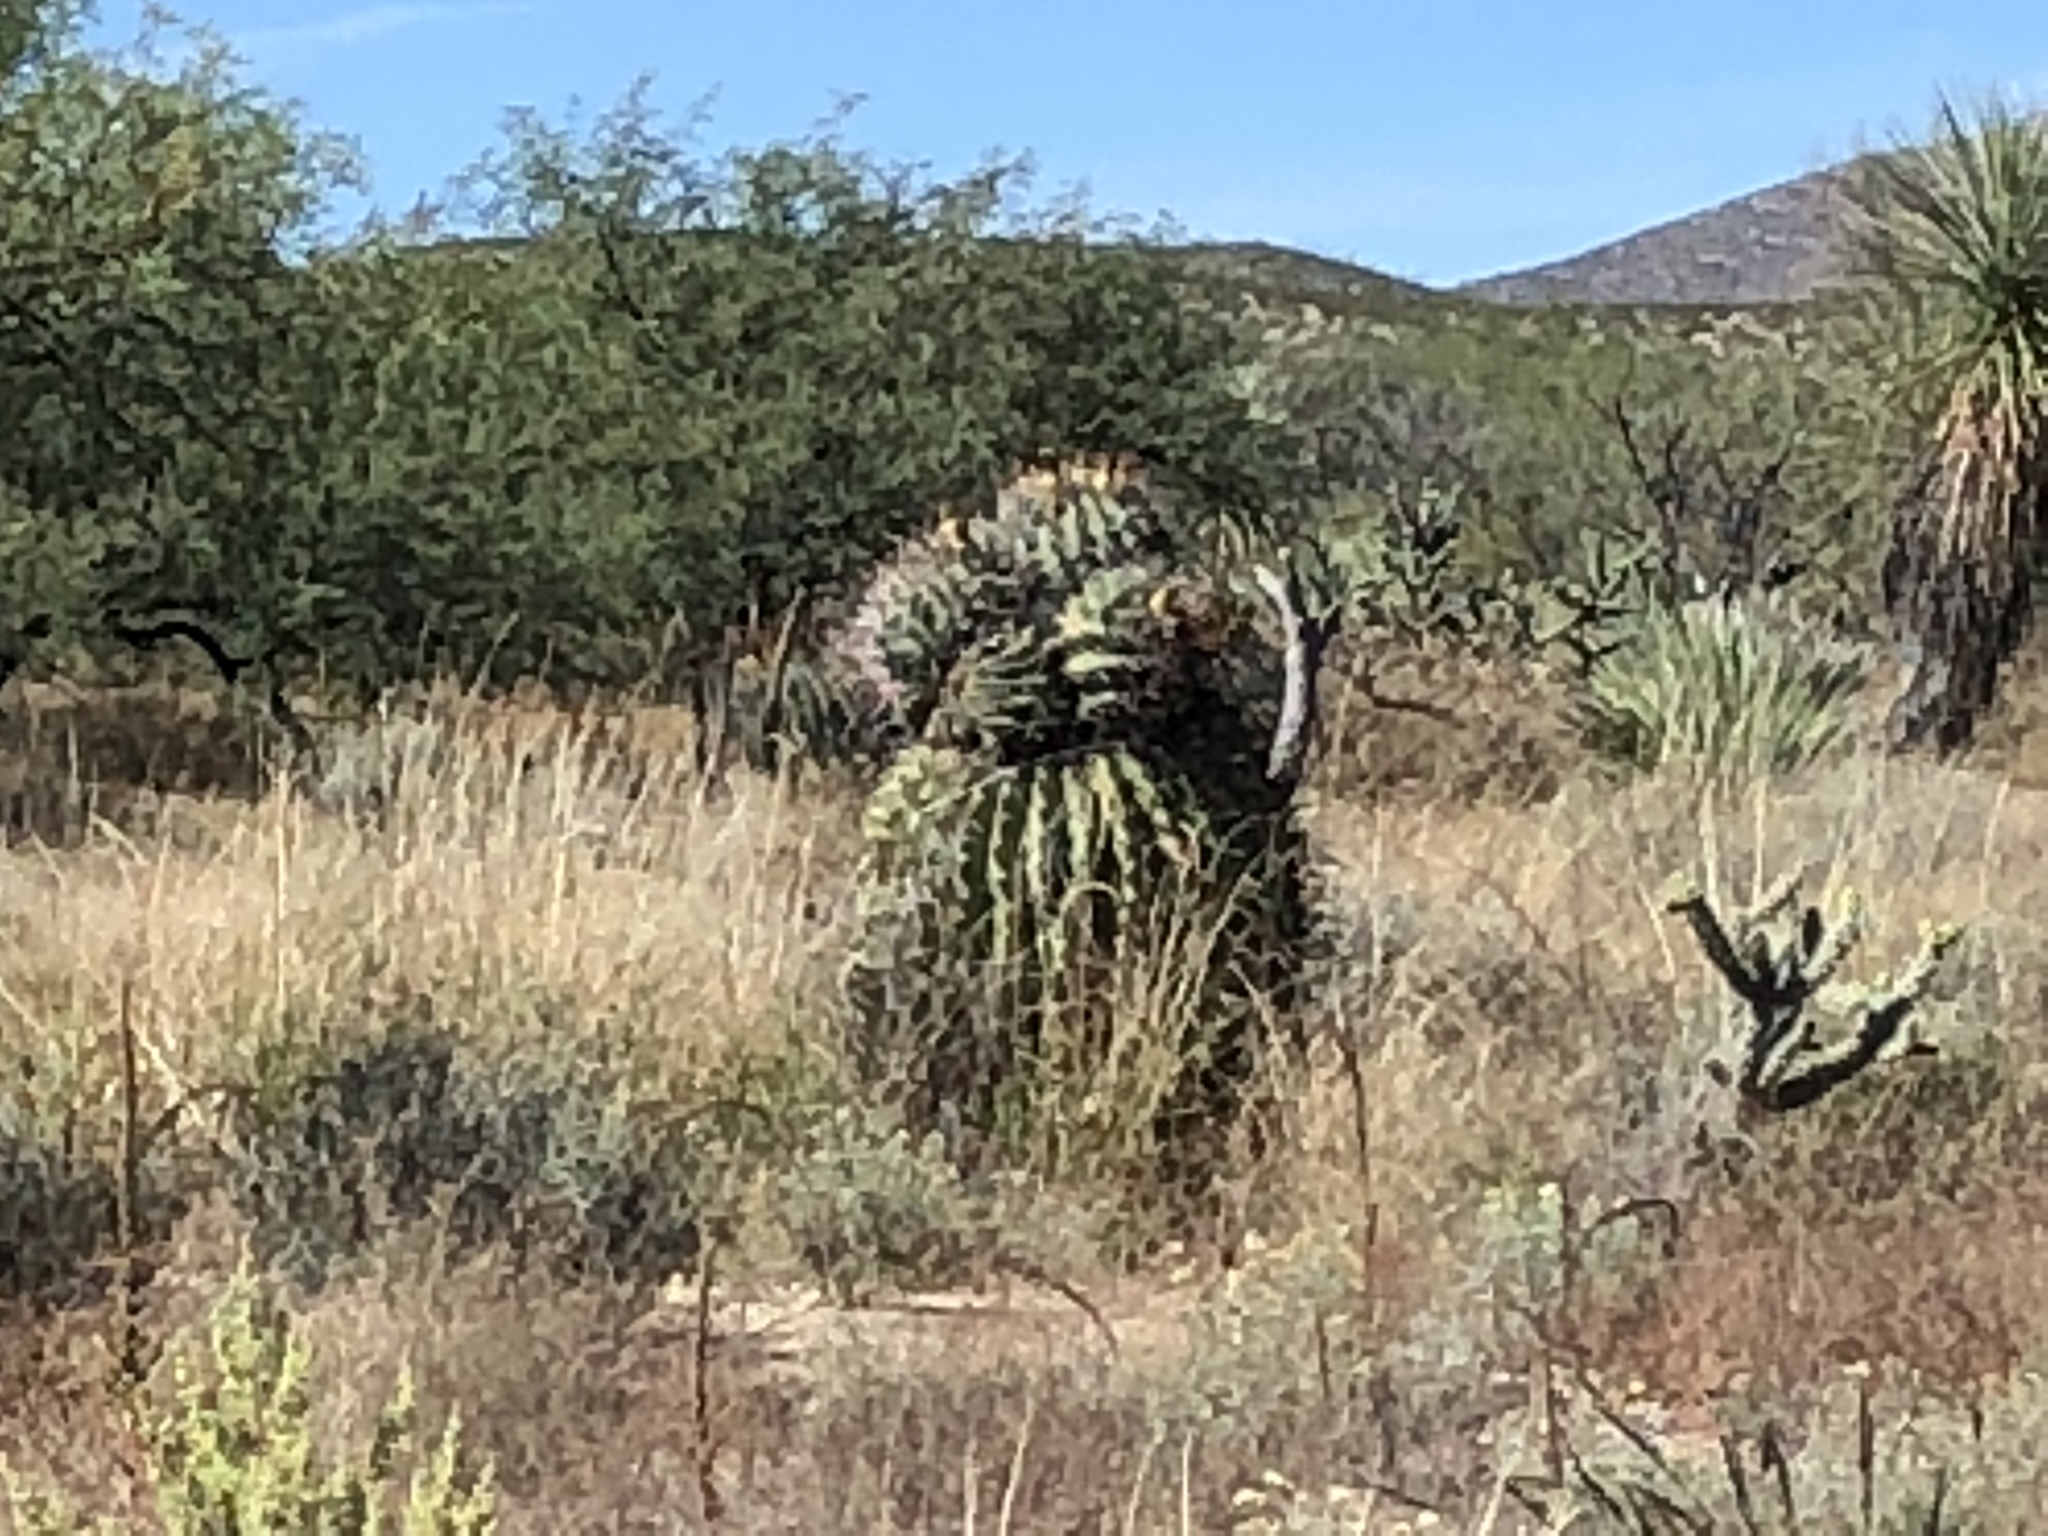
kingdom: Plantae
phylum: Tracheophyta
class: Magnoliopsida
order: Caryophyllales
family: Cactaceae
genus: Ferocactus
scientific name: Ferocactus wislizeni
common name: Candy barrel cactus
